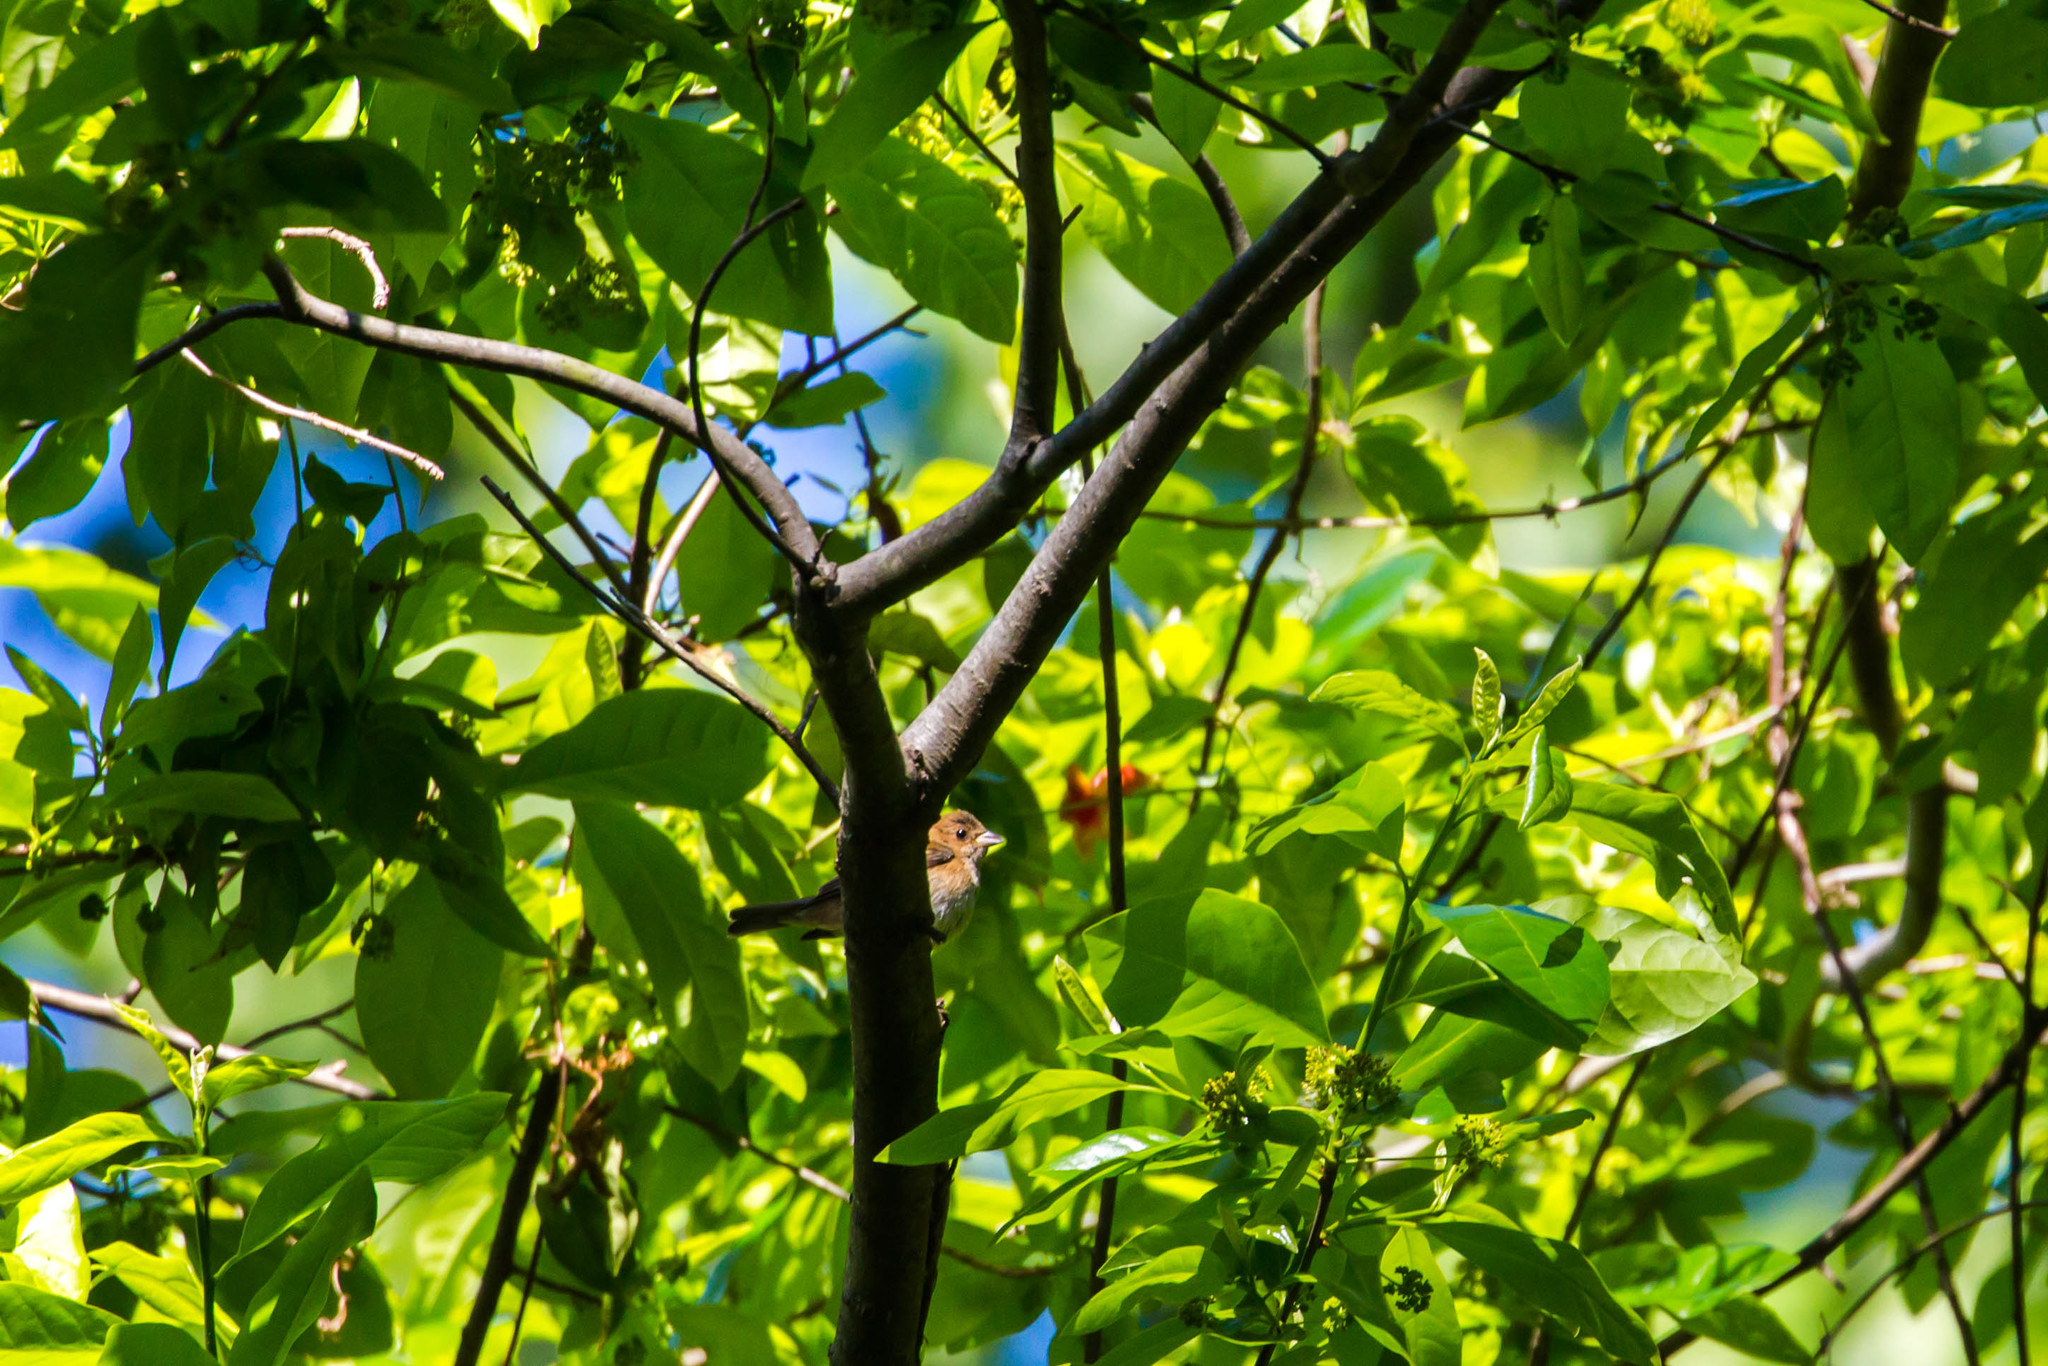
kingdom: Animalia
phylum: Chordata
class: Aves
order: Passeriformes
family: Cardinalidae
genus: Passerina
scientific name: Passerina cyanea
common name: Indigo bunting
